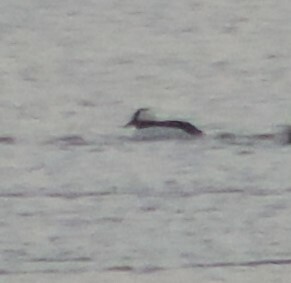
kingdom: Animalia
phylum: Chordata
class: Aves
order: Anseriformes
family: Anatidae
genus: Bucephala
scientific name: Bucephala albeola
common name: Bufflehead
